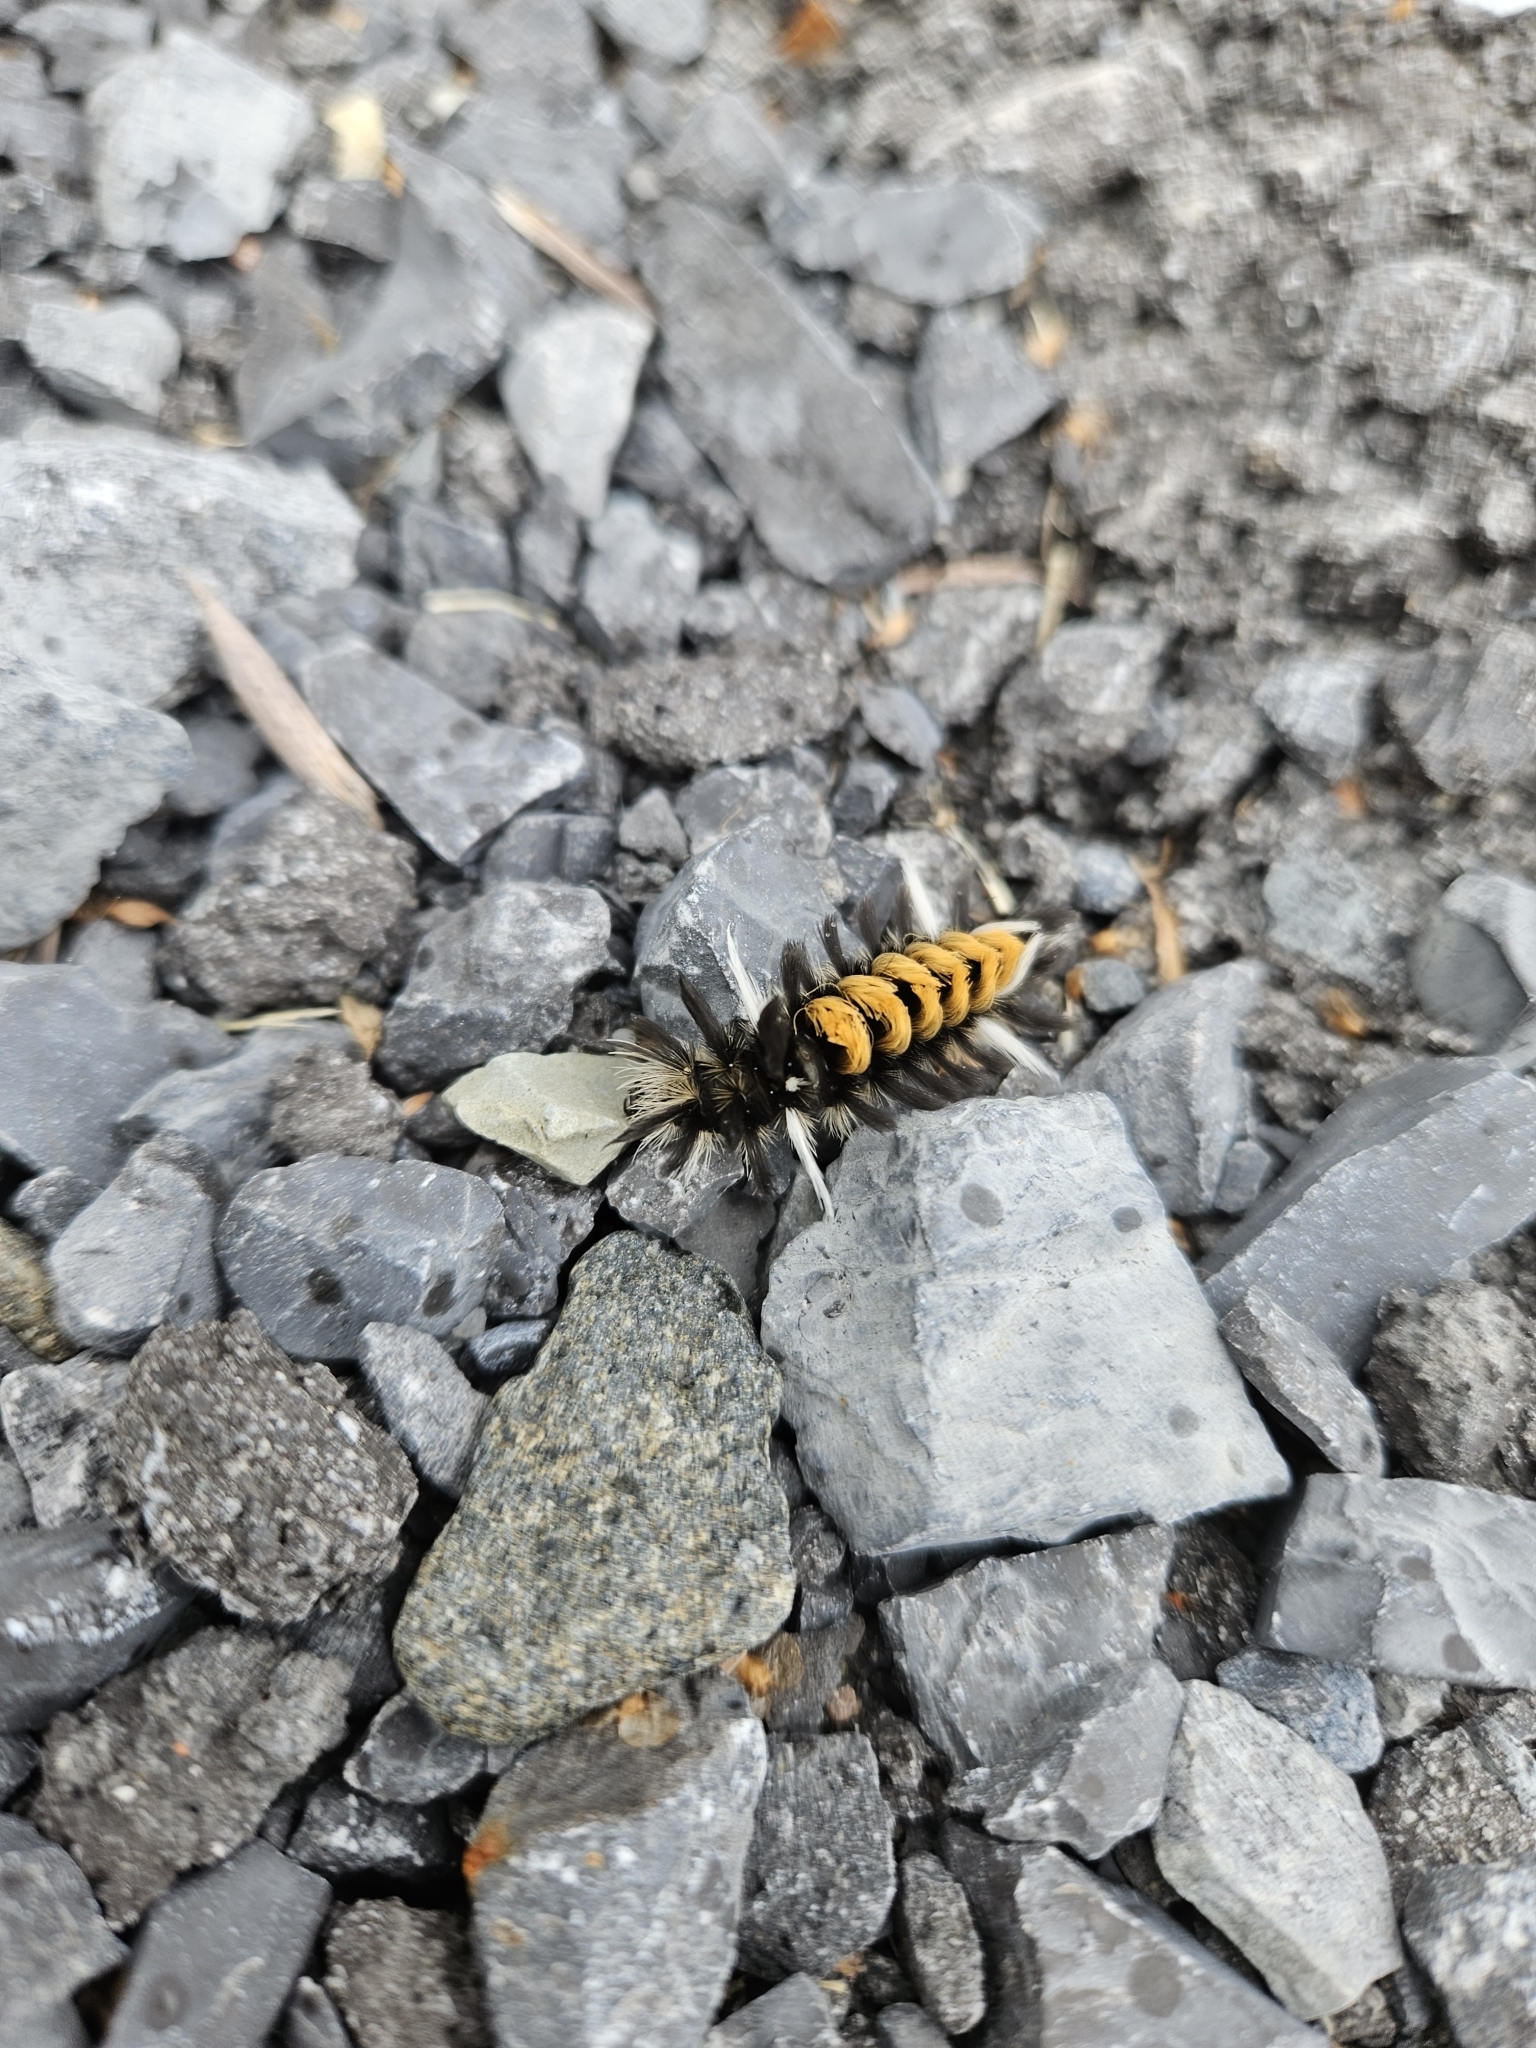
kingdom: Animalia
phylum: Arthropoda
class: Insecta
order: Lepidoptera
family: Erebidae
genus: Euchaetes
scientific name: Euchaetes egle
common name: Milkweed tussock moth
